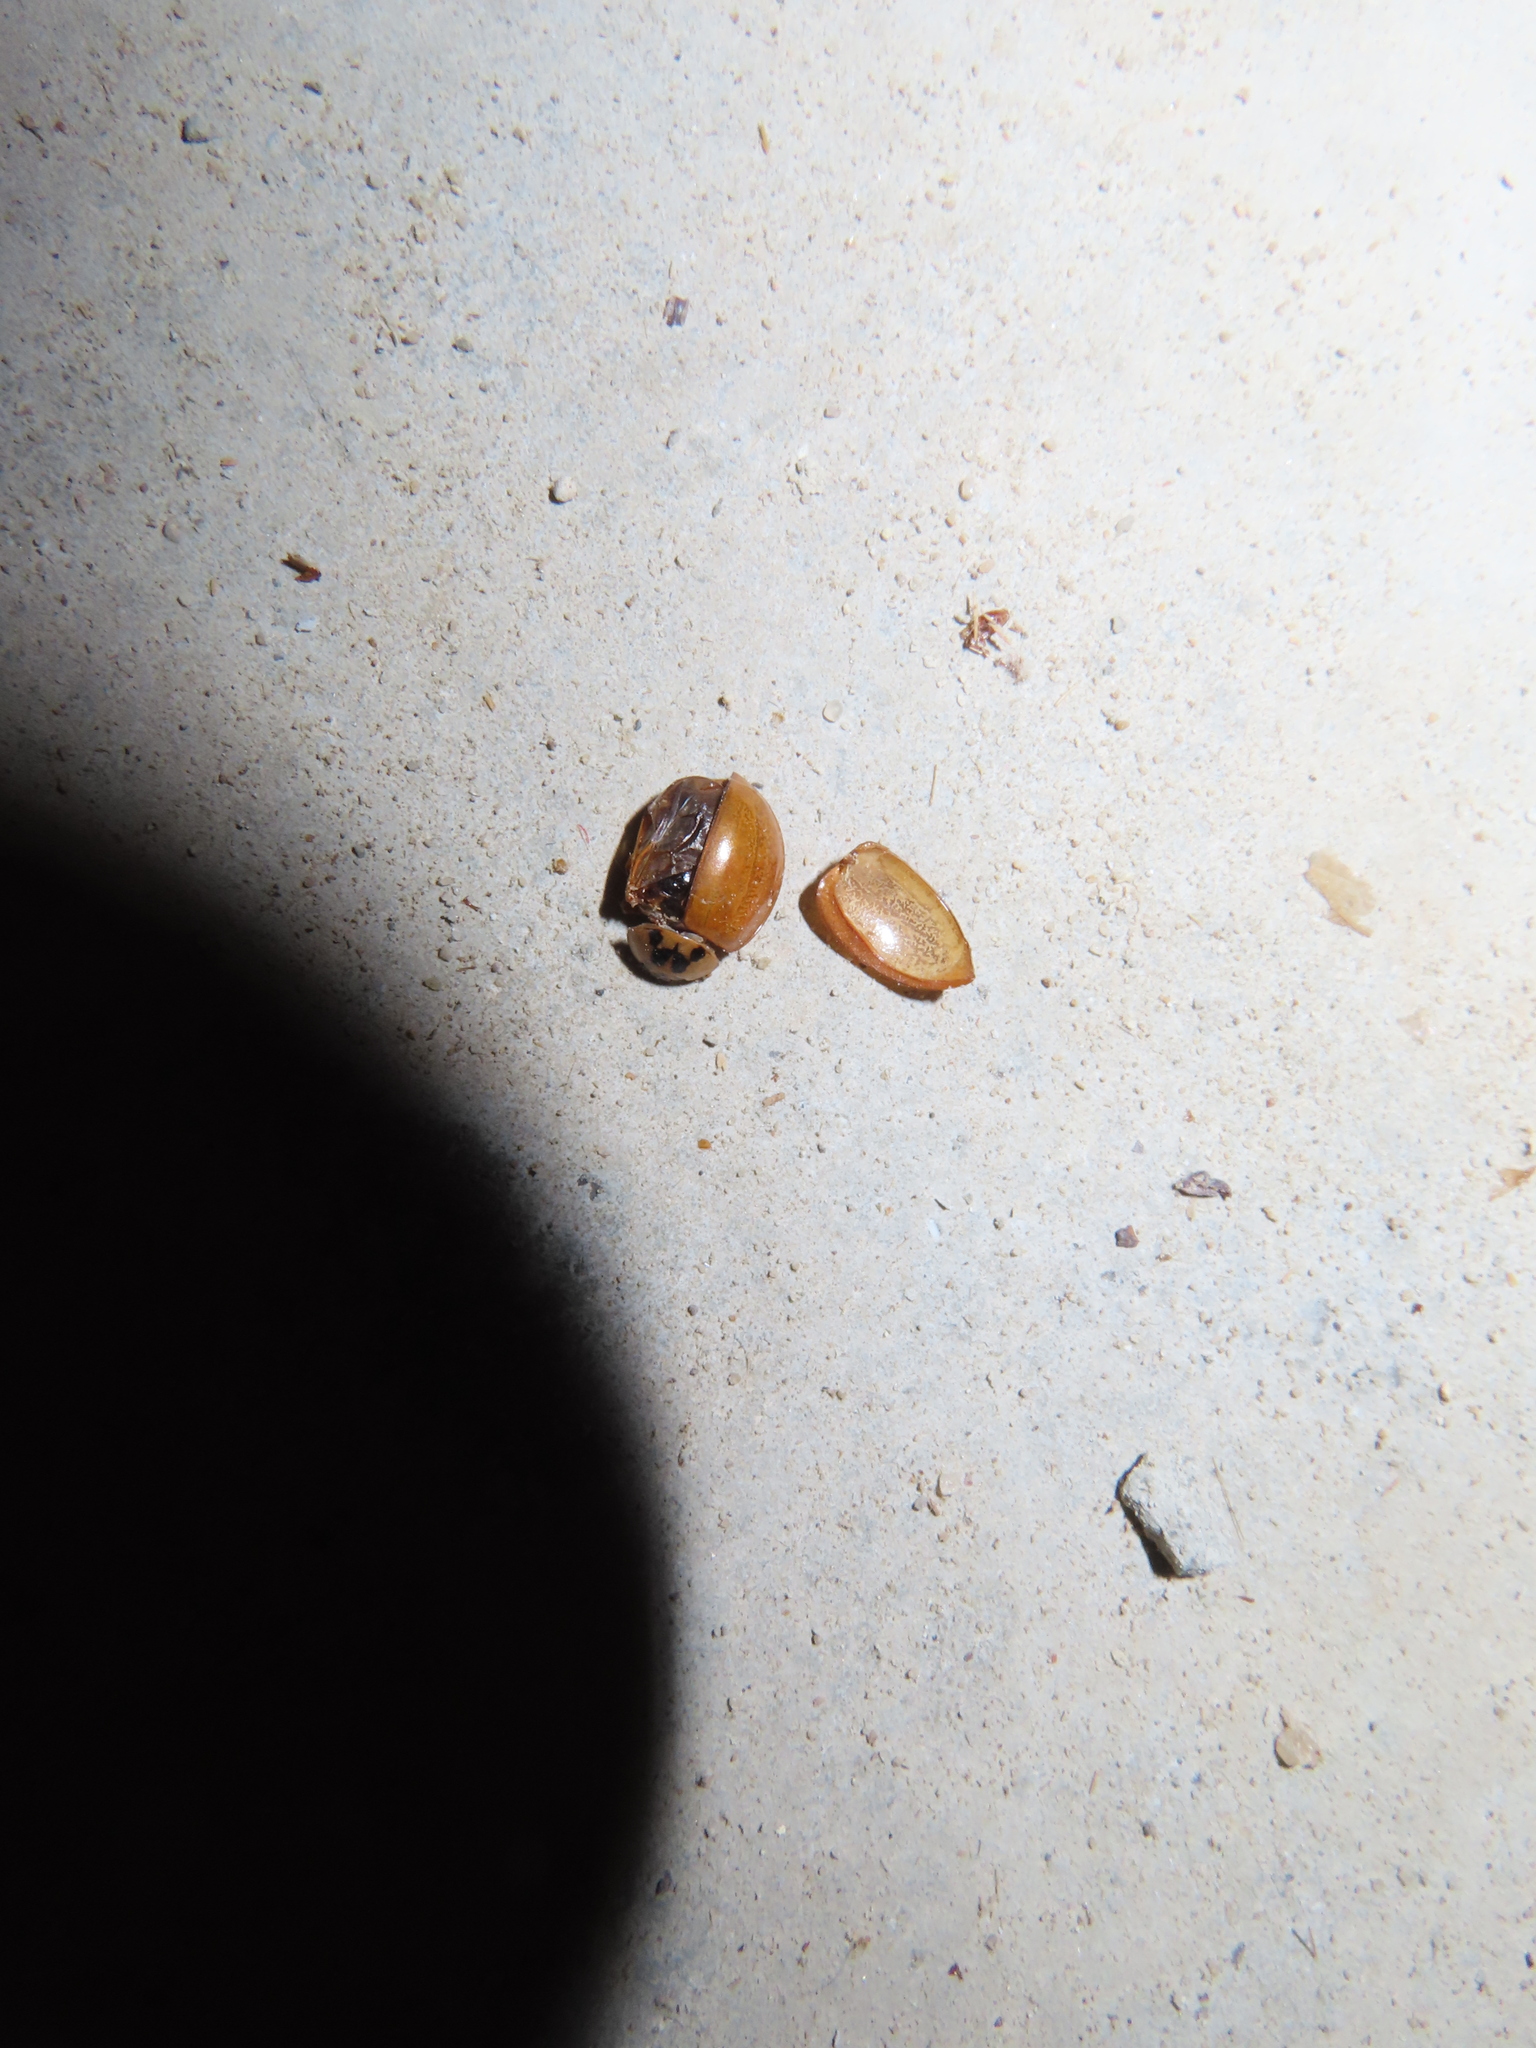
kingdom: Animalia
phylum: Arthropoda
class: Insecta
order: Coleoptera
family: Coccinellidae
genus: Harmonia
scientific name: Harmonia axyridis
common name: Harlequin ladybird
